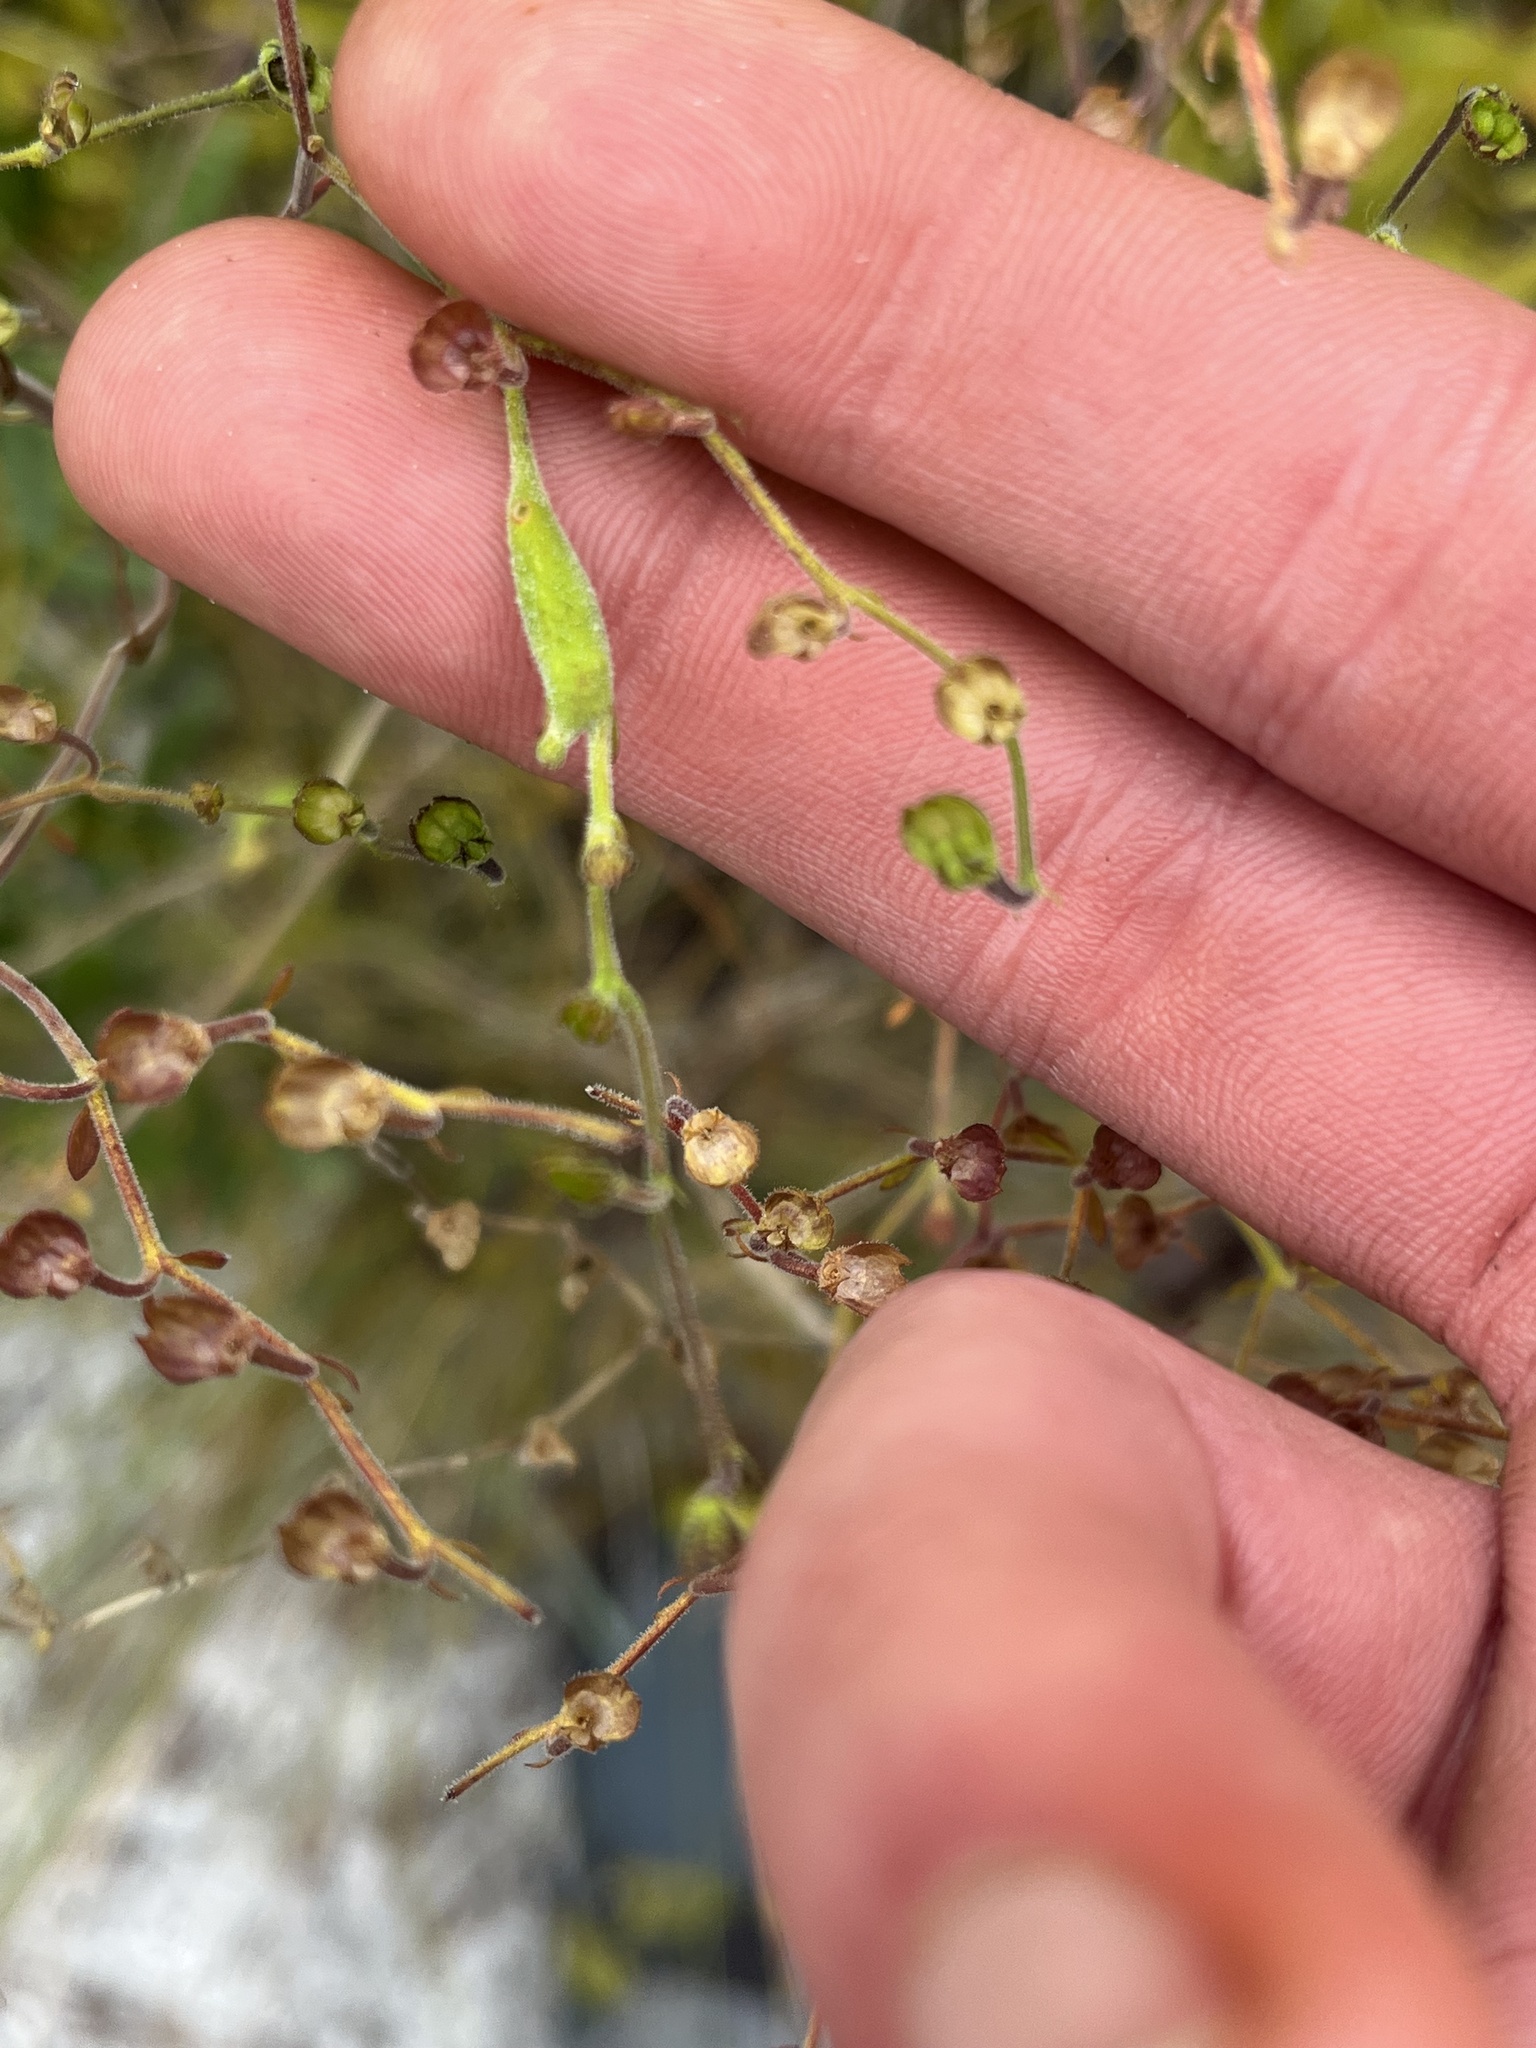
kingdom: Animalia
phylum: Arthropoda
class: Insecta
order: Lepidoptera
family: Cosmopterigidae
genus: Eteobalea
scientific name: Eteobalea sexnotella
